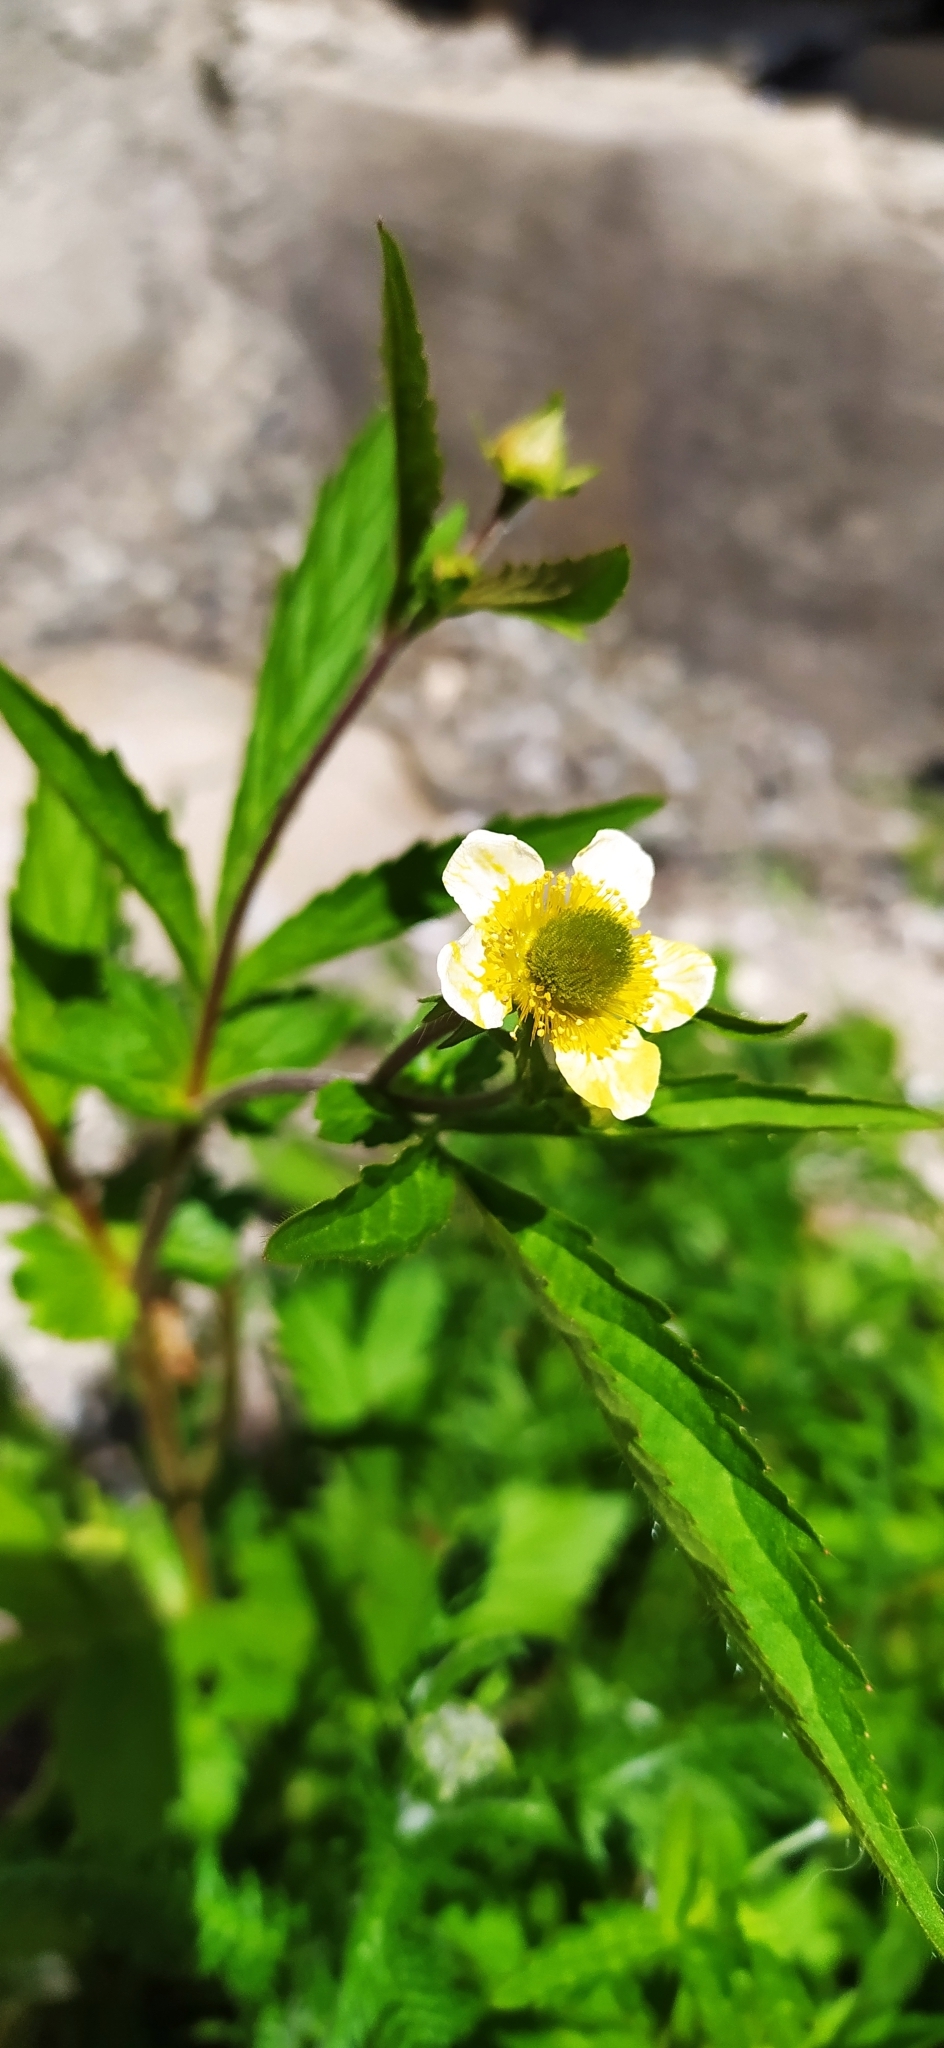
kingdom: Plantae
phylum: Tracheophyta
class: Magnoliopsida
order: Rosales
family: Rosaceae
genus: Geum
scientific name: Geum aleppicum
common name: Yellow avens
